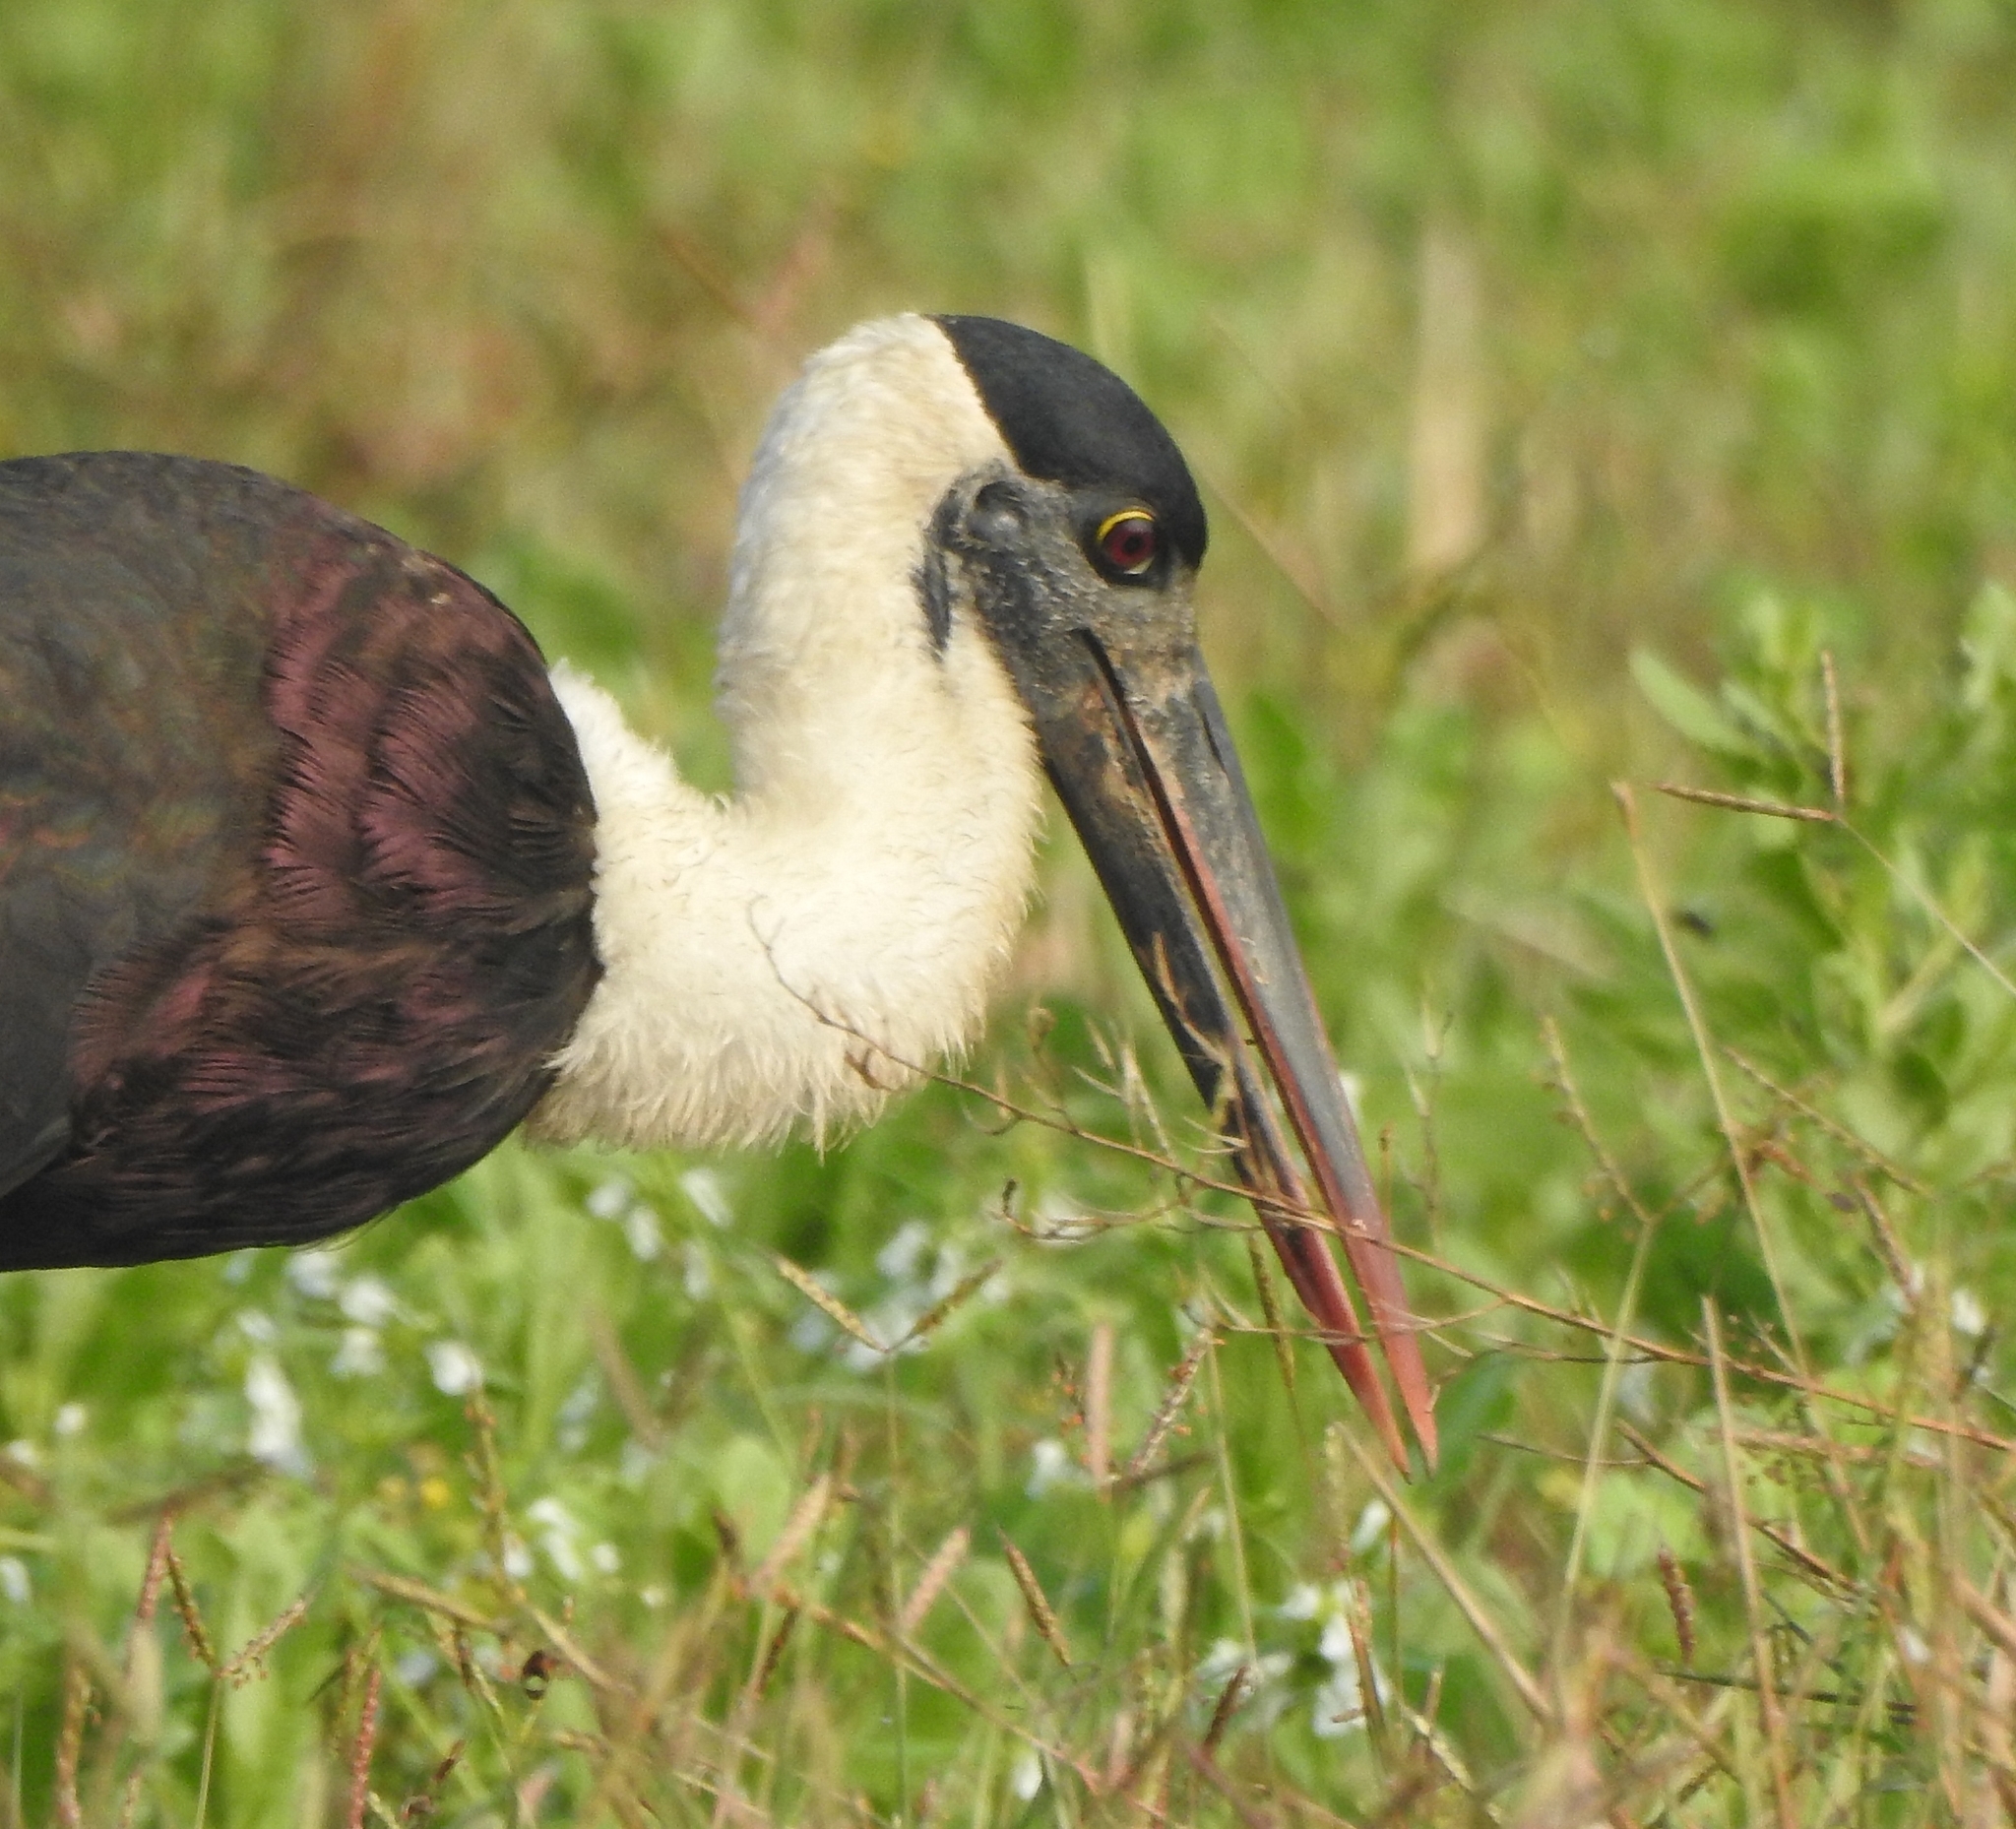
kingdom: Animalia
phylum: Chordata
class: Aves
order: Ciconiiformes
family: Ciconiidae
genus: Ciconia
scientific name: Ciconia episcopus
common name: Woolly-necked stork
